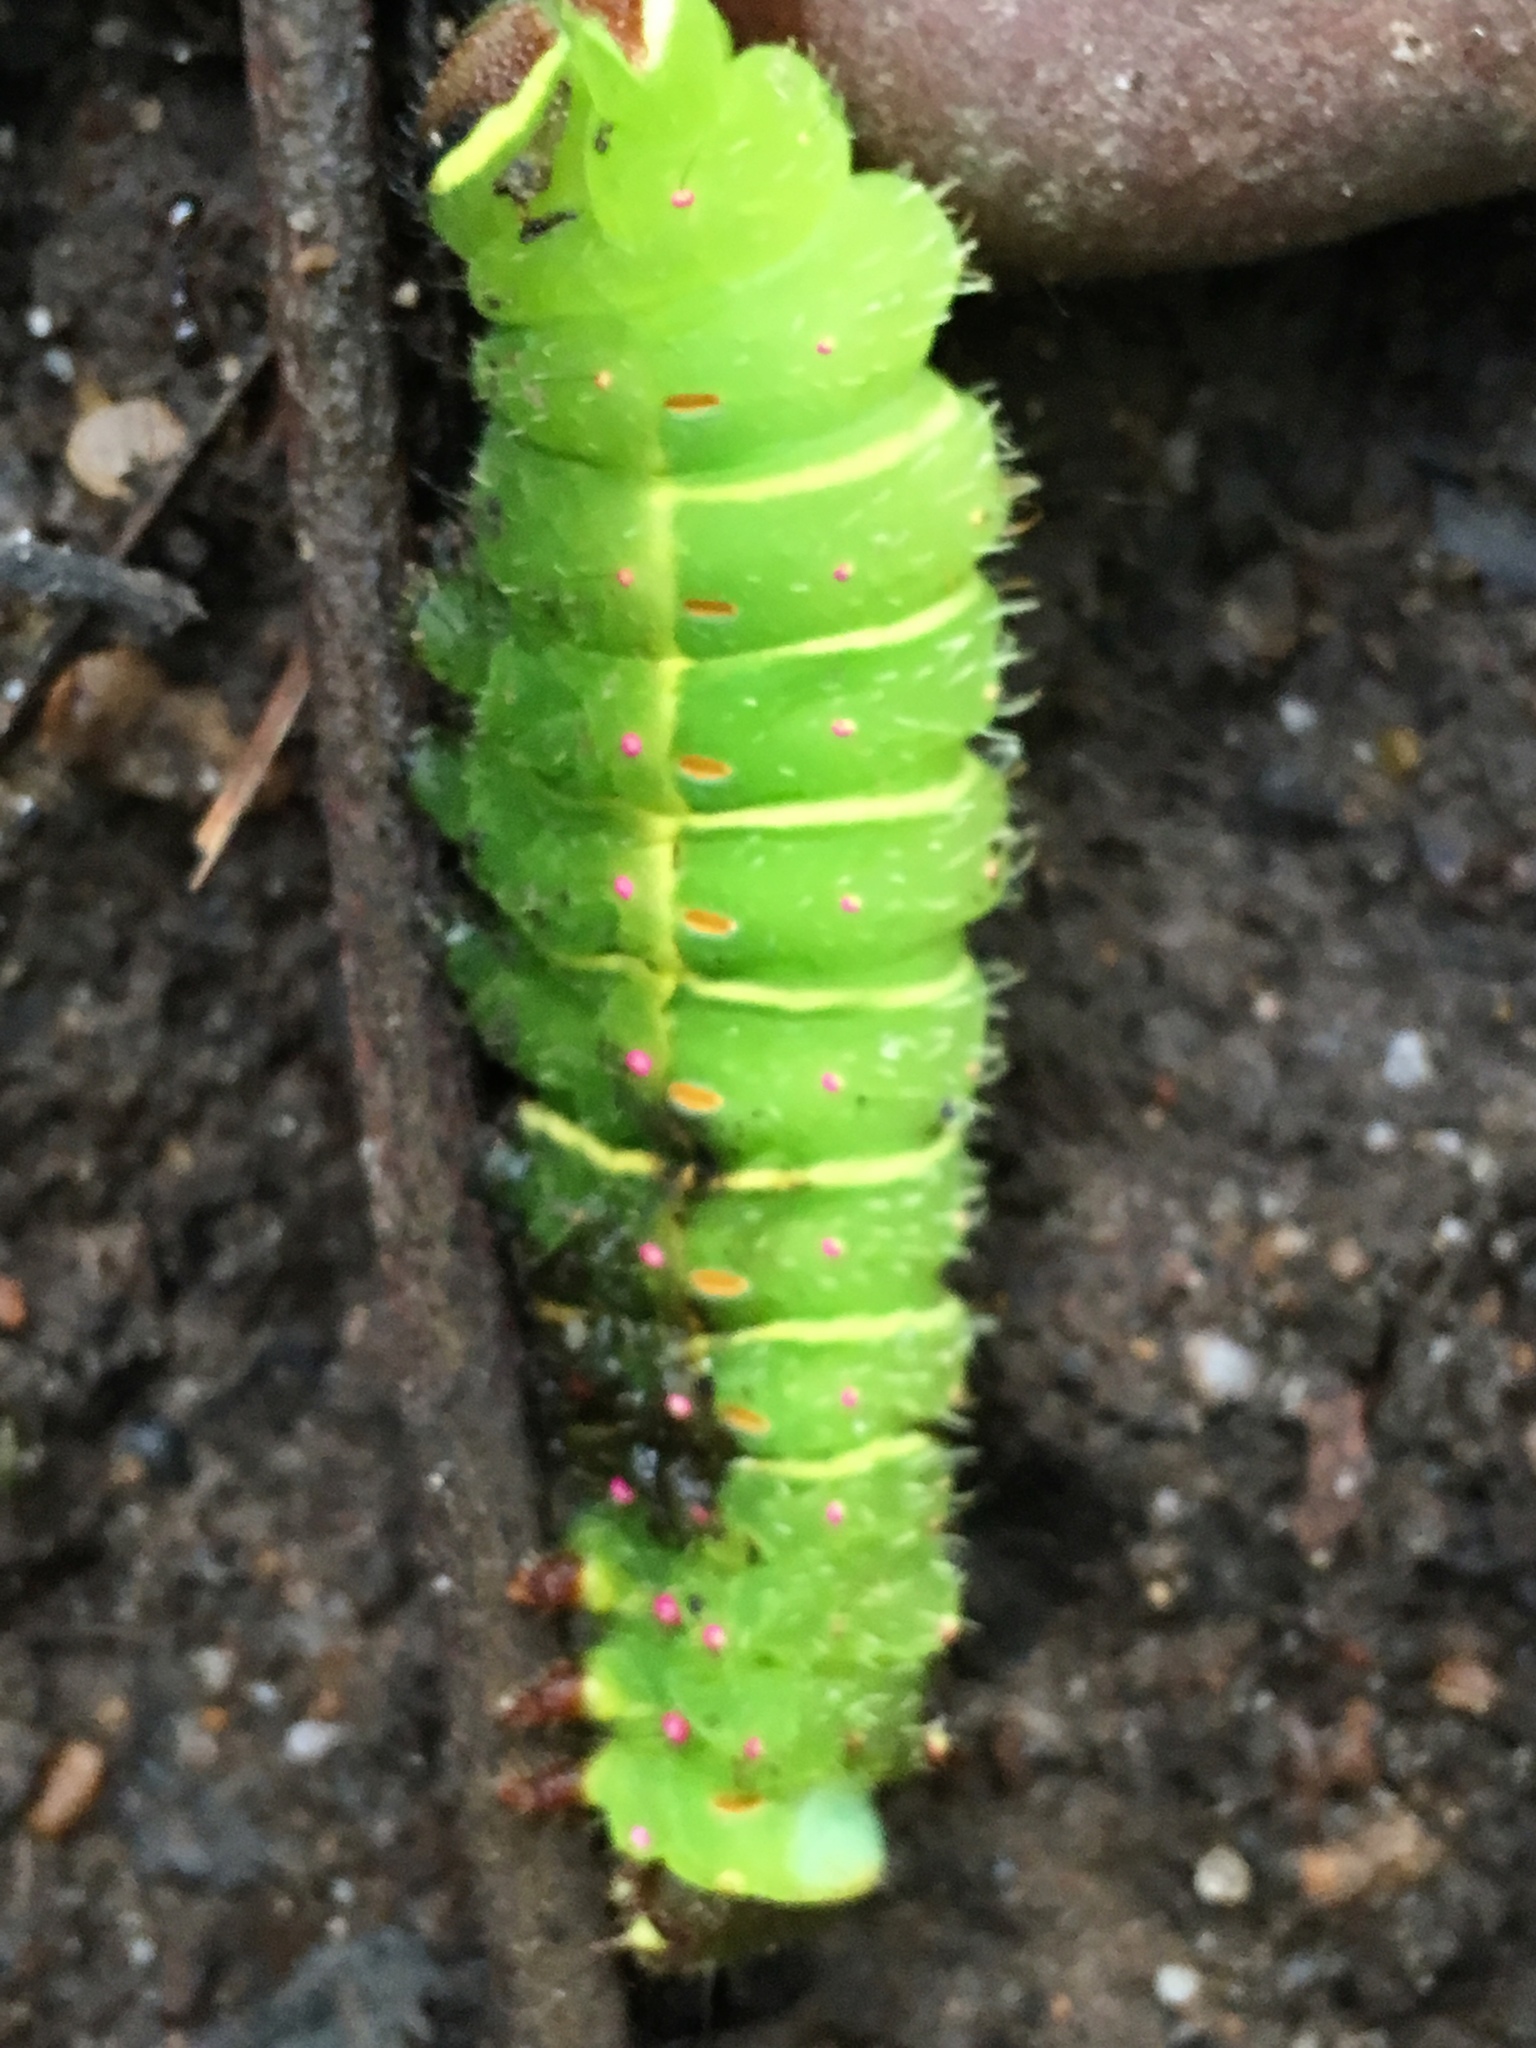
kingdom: Animalia
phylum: Arthropoda
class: Insecta
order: Lepidoptera
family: Saturniidae
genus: Antheraea
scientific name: Antheraea polyphemus
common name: Polyphemus moth
